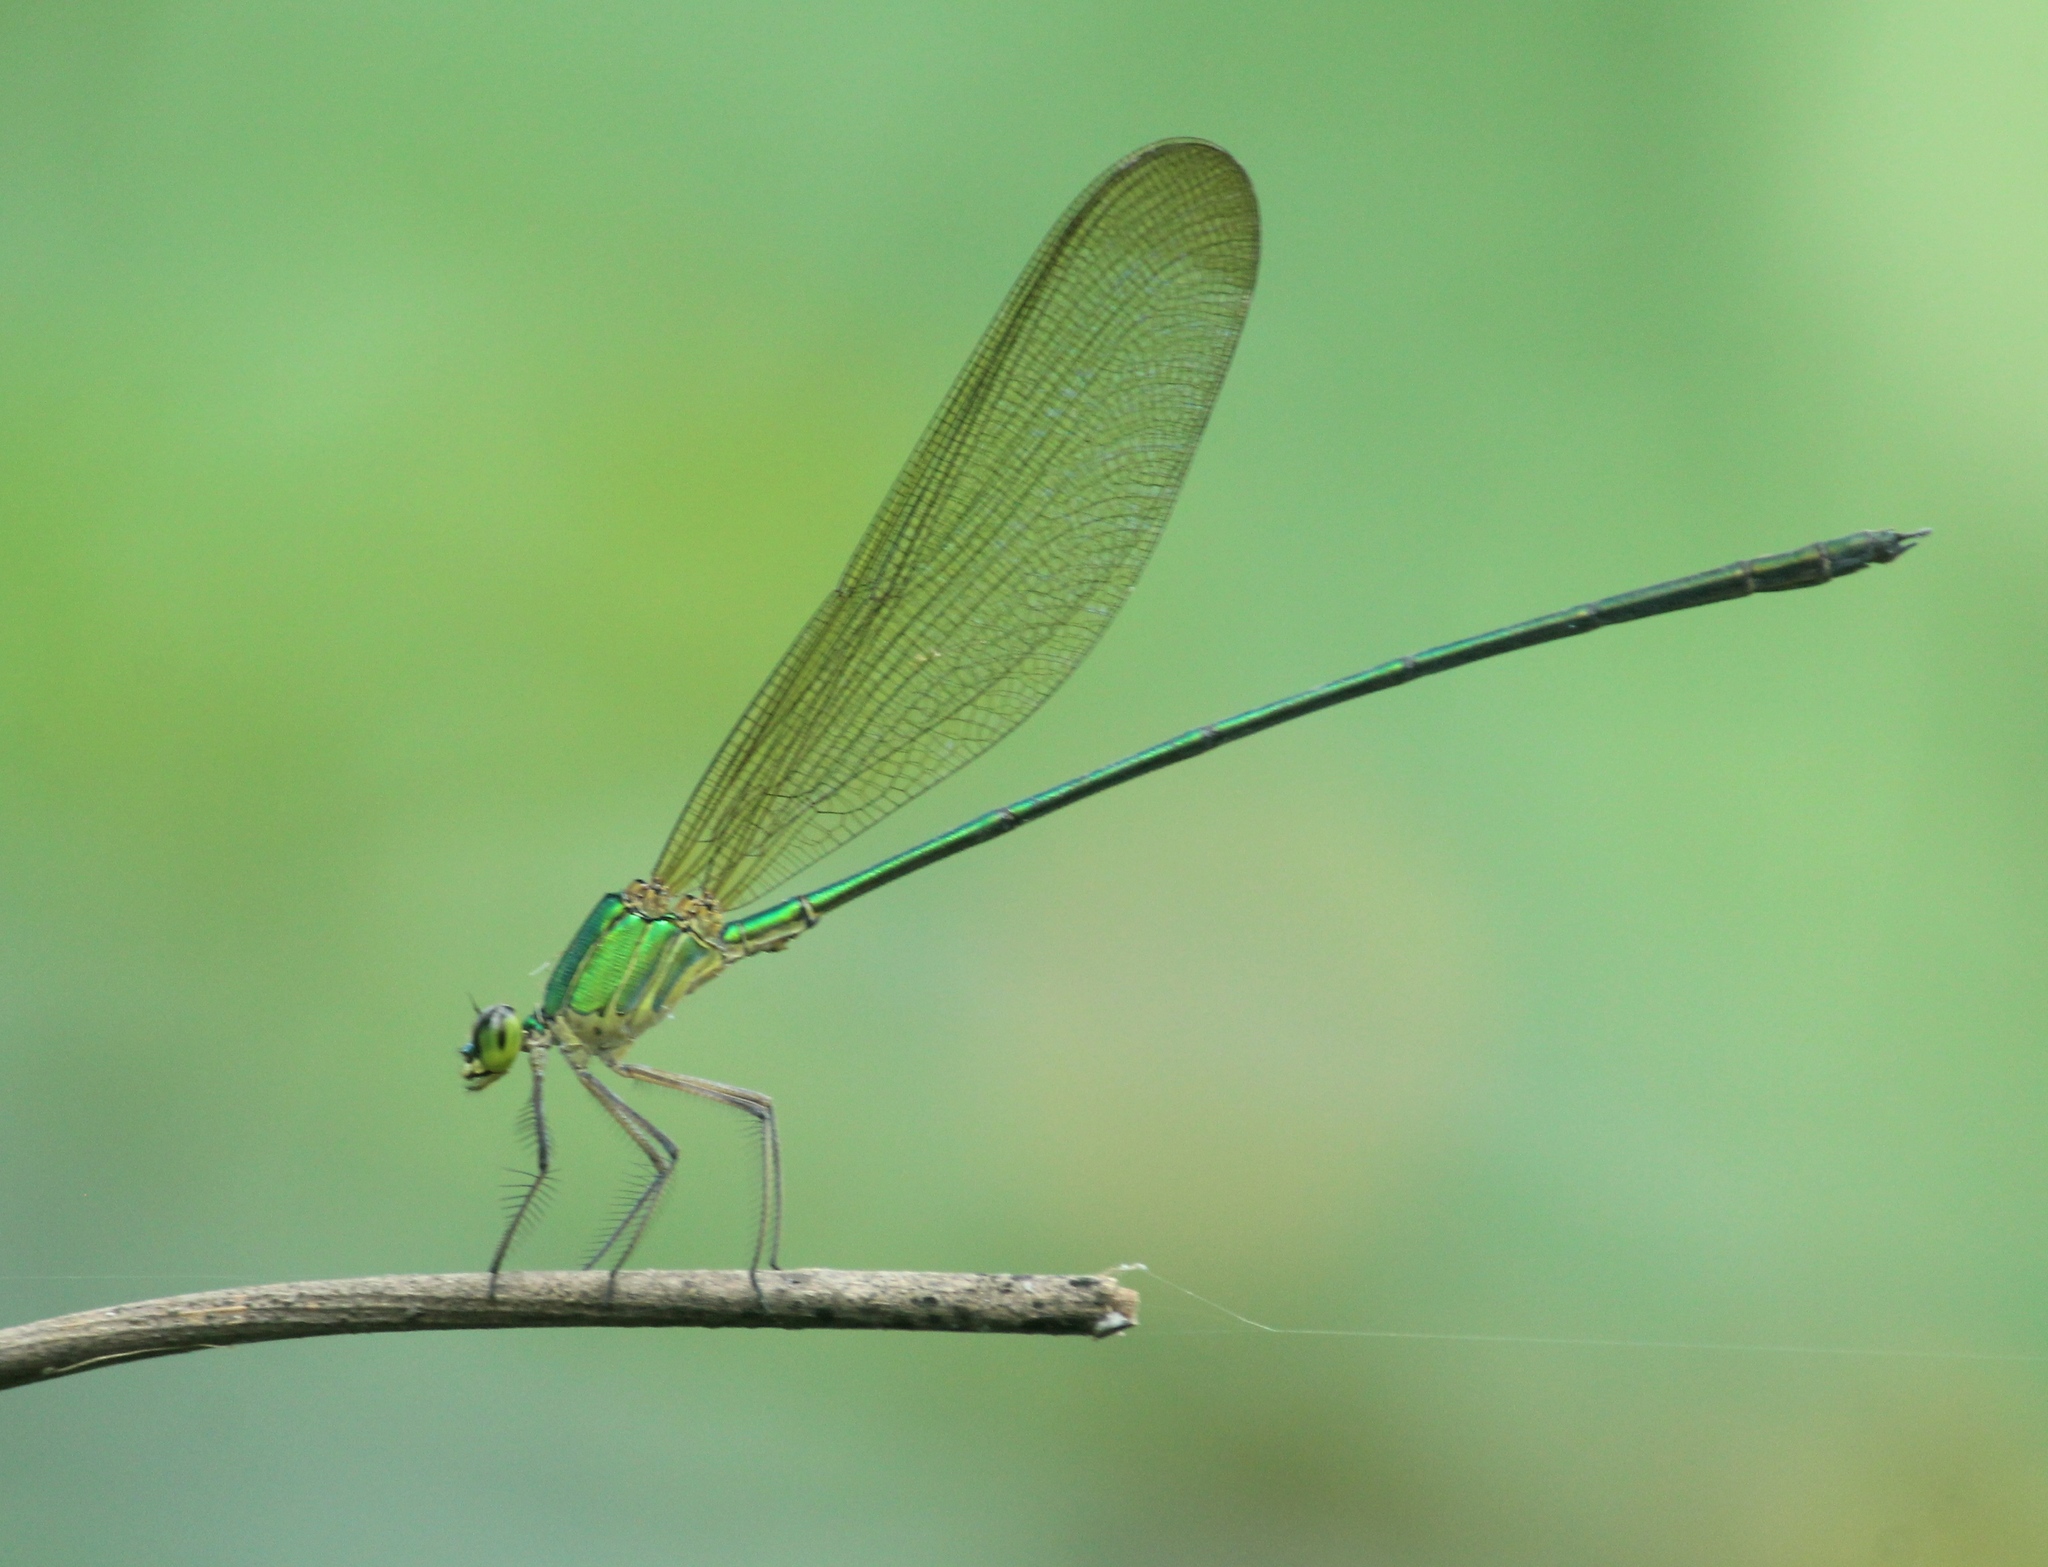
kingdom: Animalia
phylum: Arthropoda
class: Insecta
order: Odonata
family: Calopterygidae
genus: Vestalis
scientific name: Vestalis gracilis
